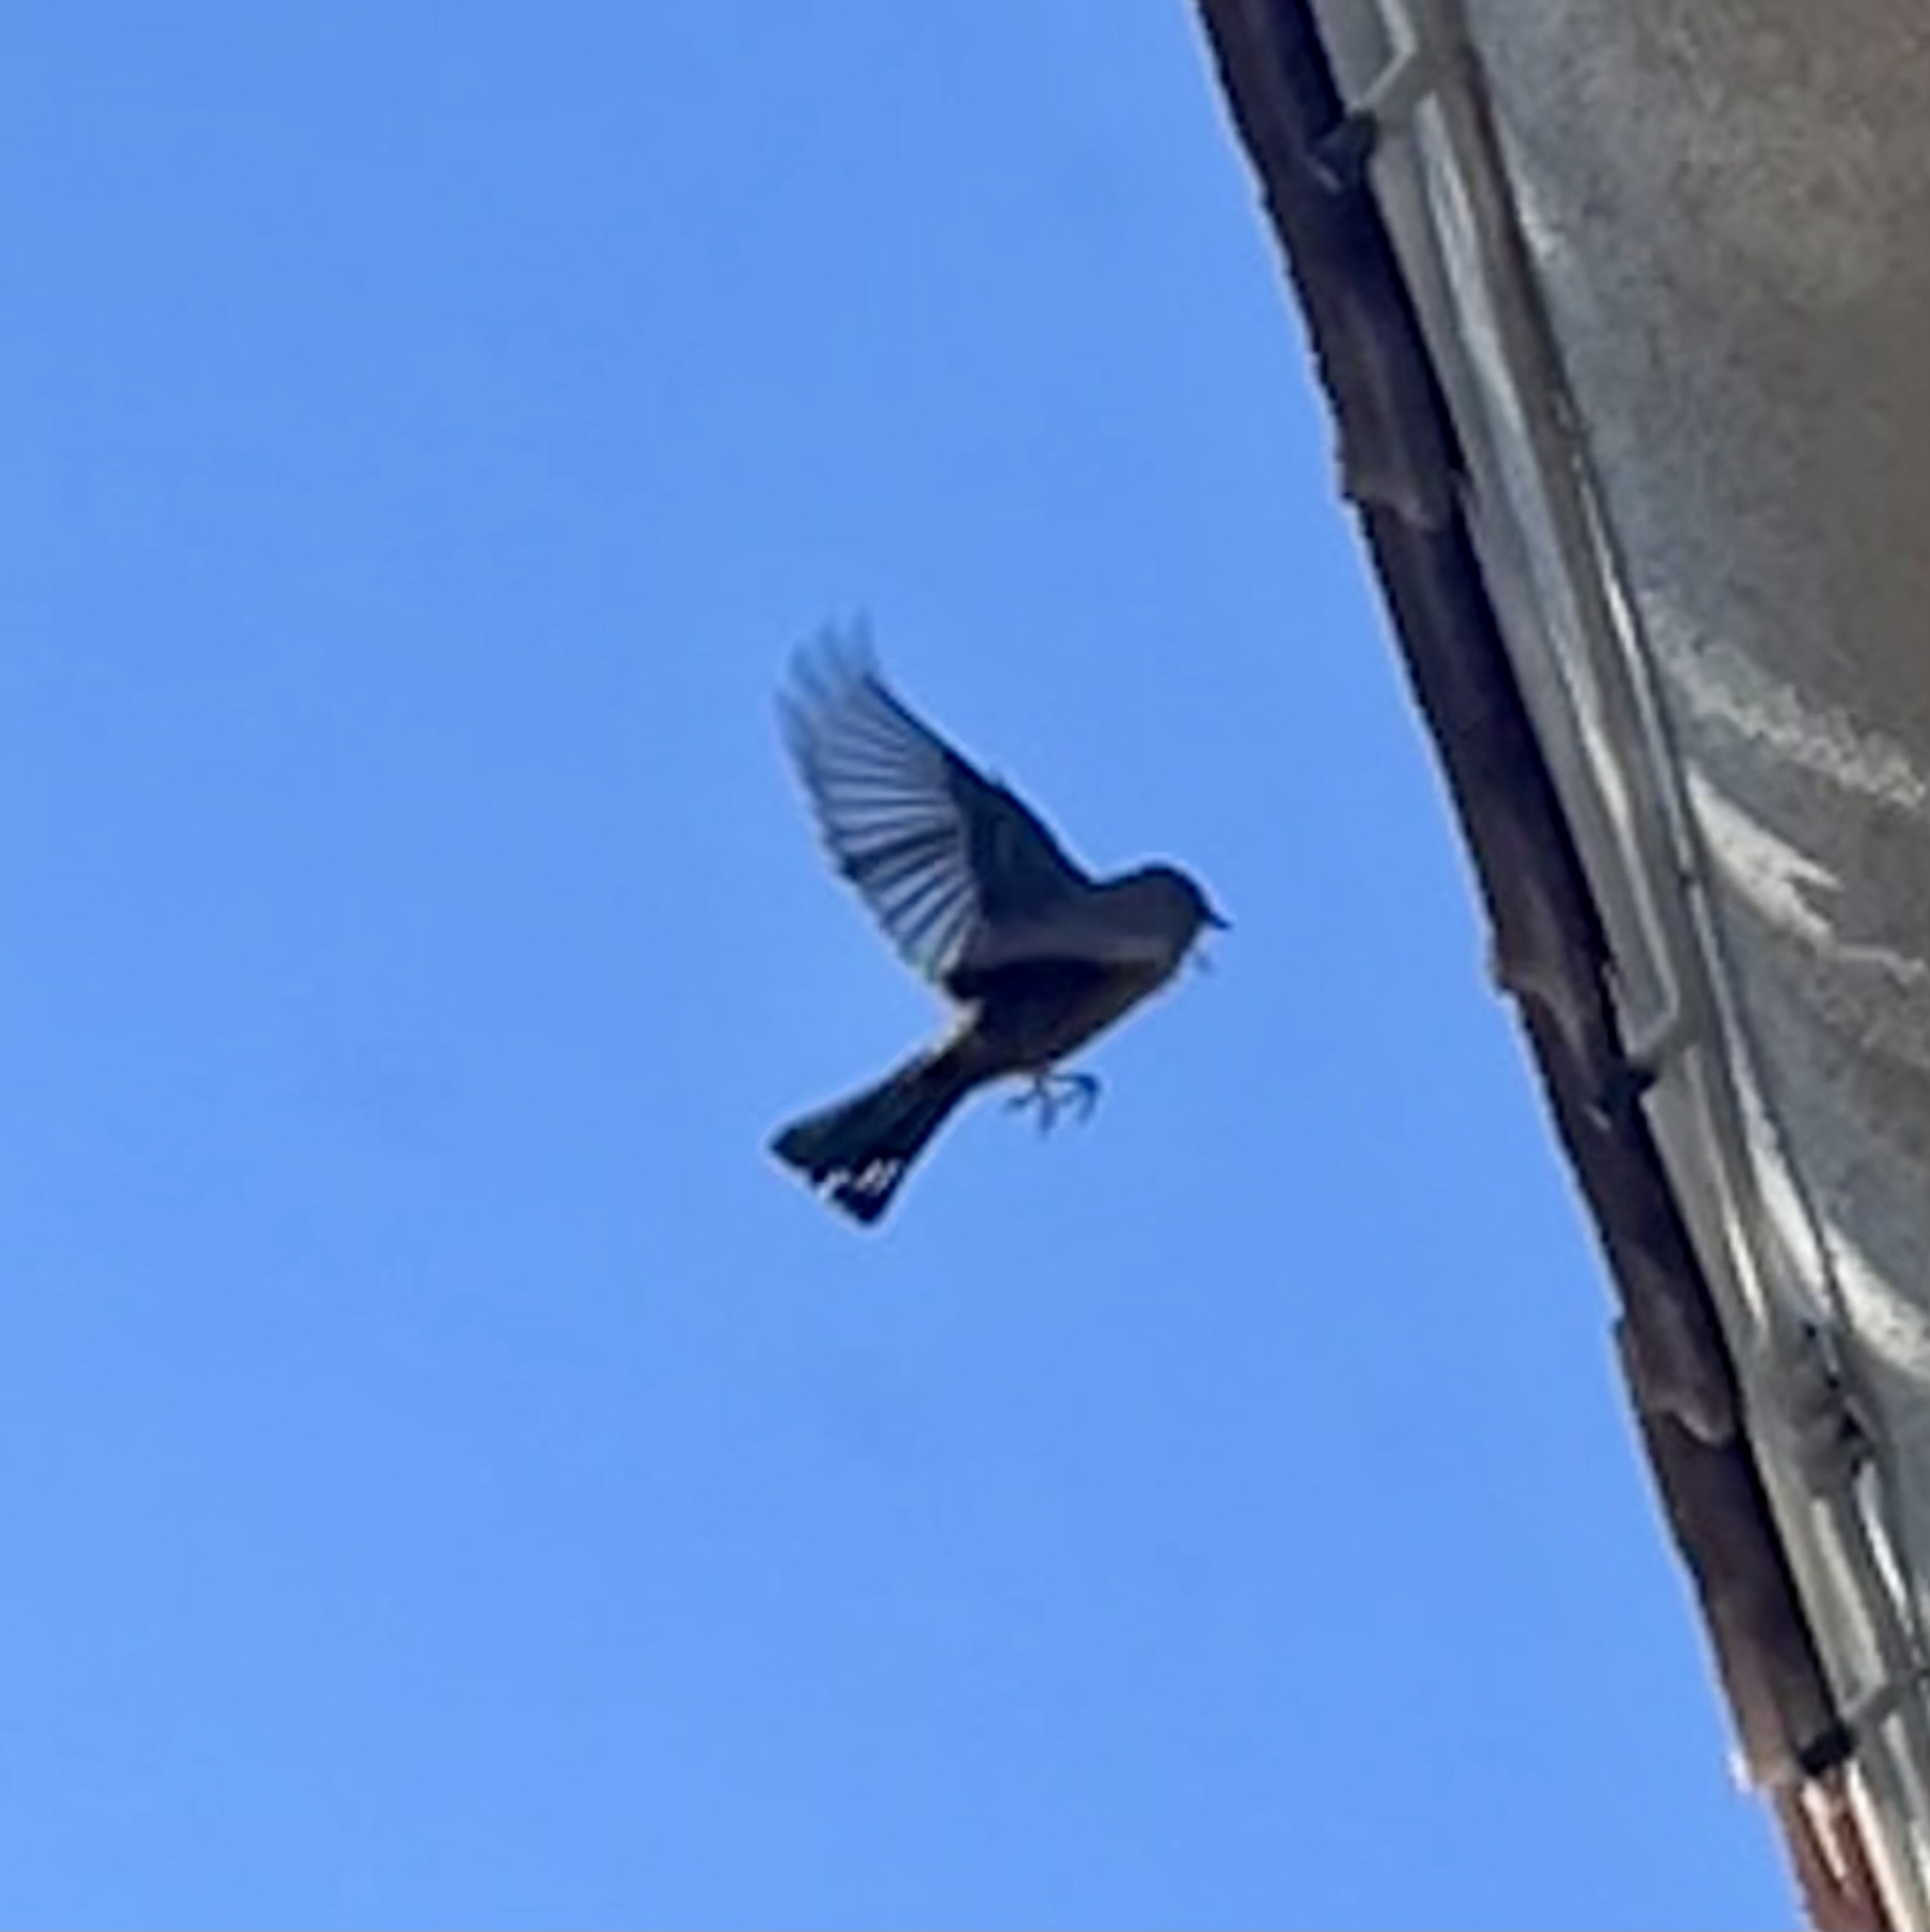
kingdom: Animalia
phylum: Chordata
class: Aves
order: Passeriformes
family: Parulidae
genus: Setophaga
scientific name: Setophaga coronata
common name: Myrtle warbler
